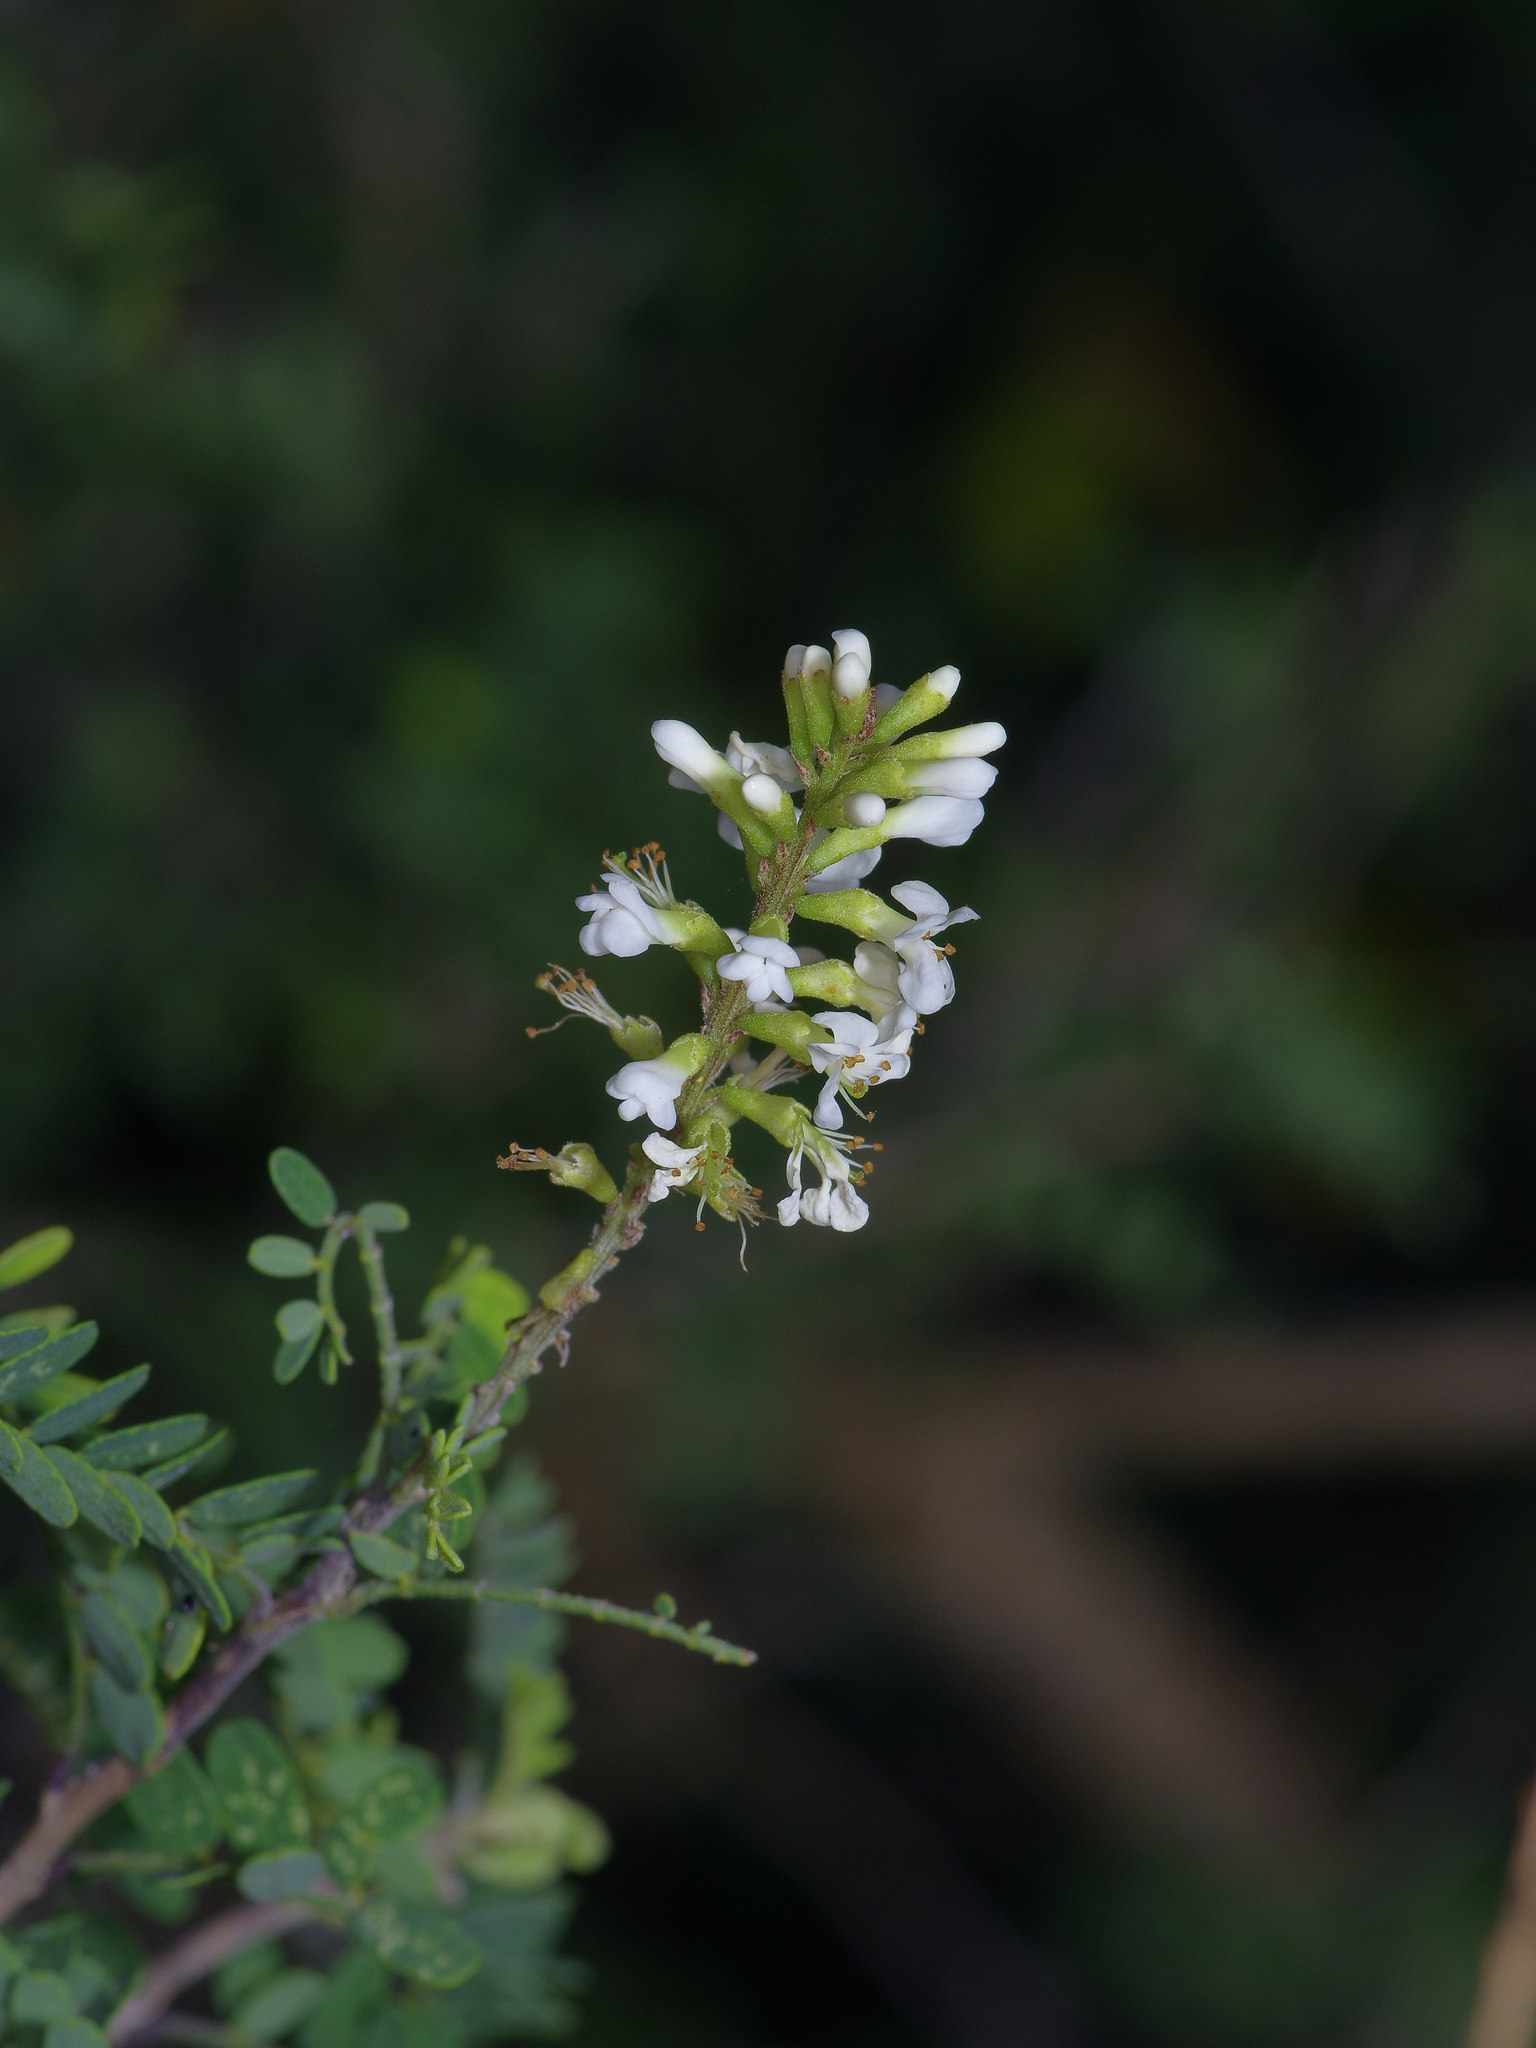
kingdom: Plantae
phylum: Tracheophyta
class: Magnoliopsida
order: Fabales
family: Fabaceae
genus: Eysenhardtia
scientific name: Eysenhardtia texana
